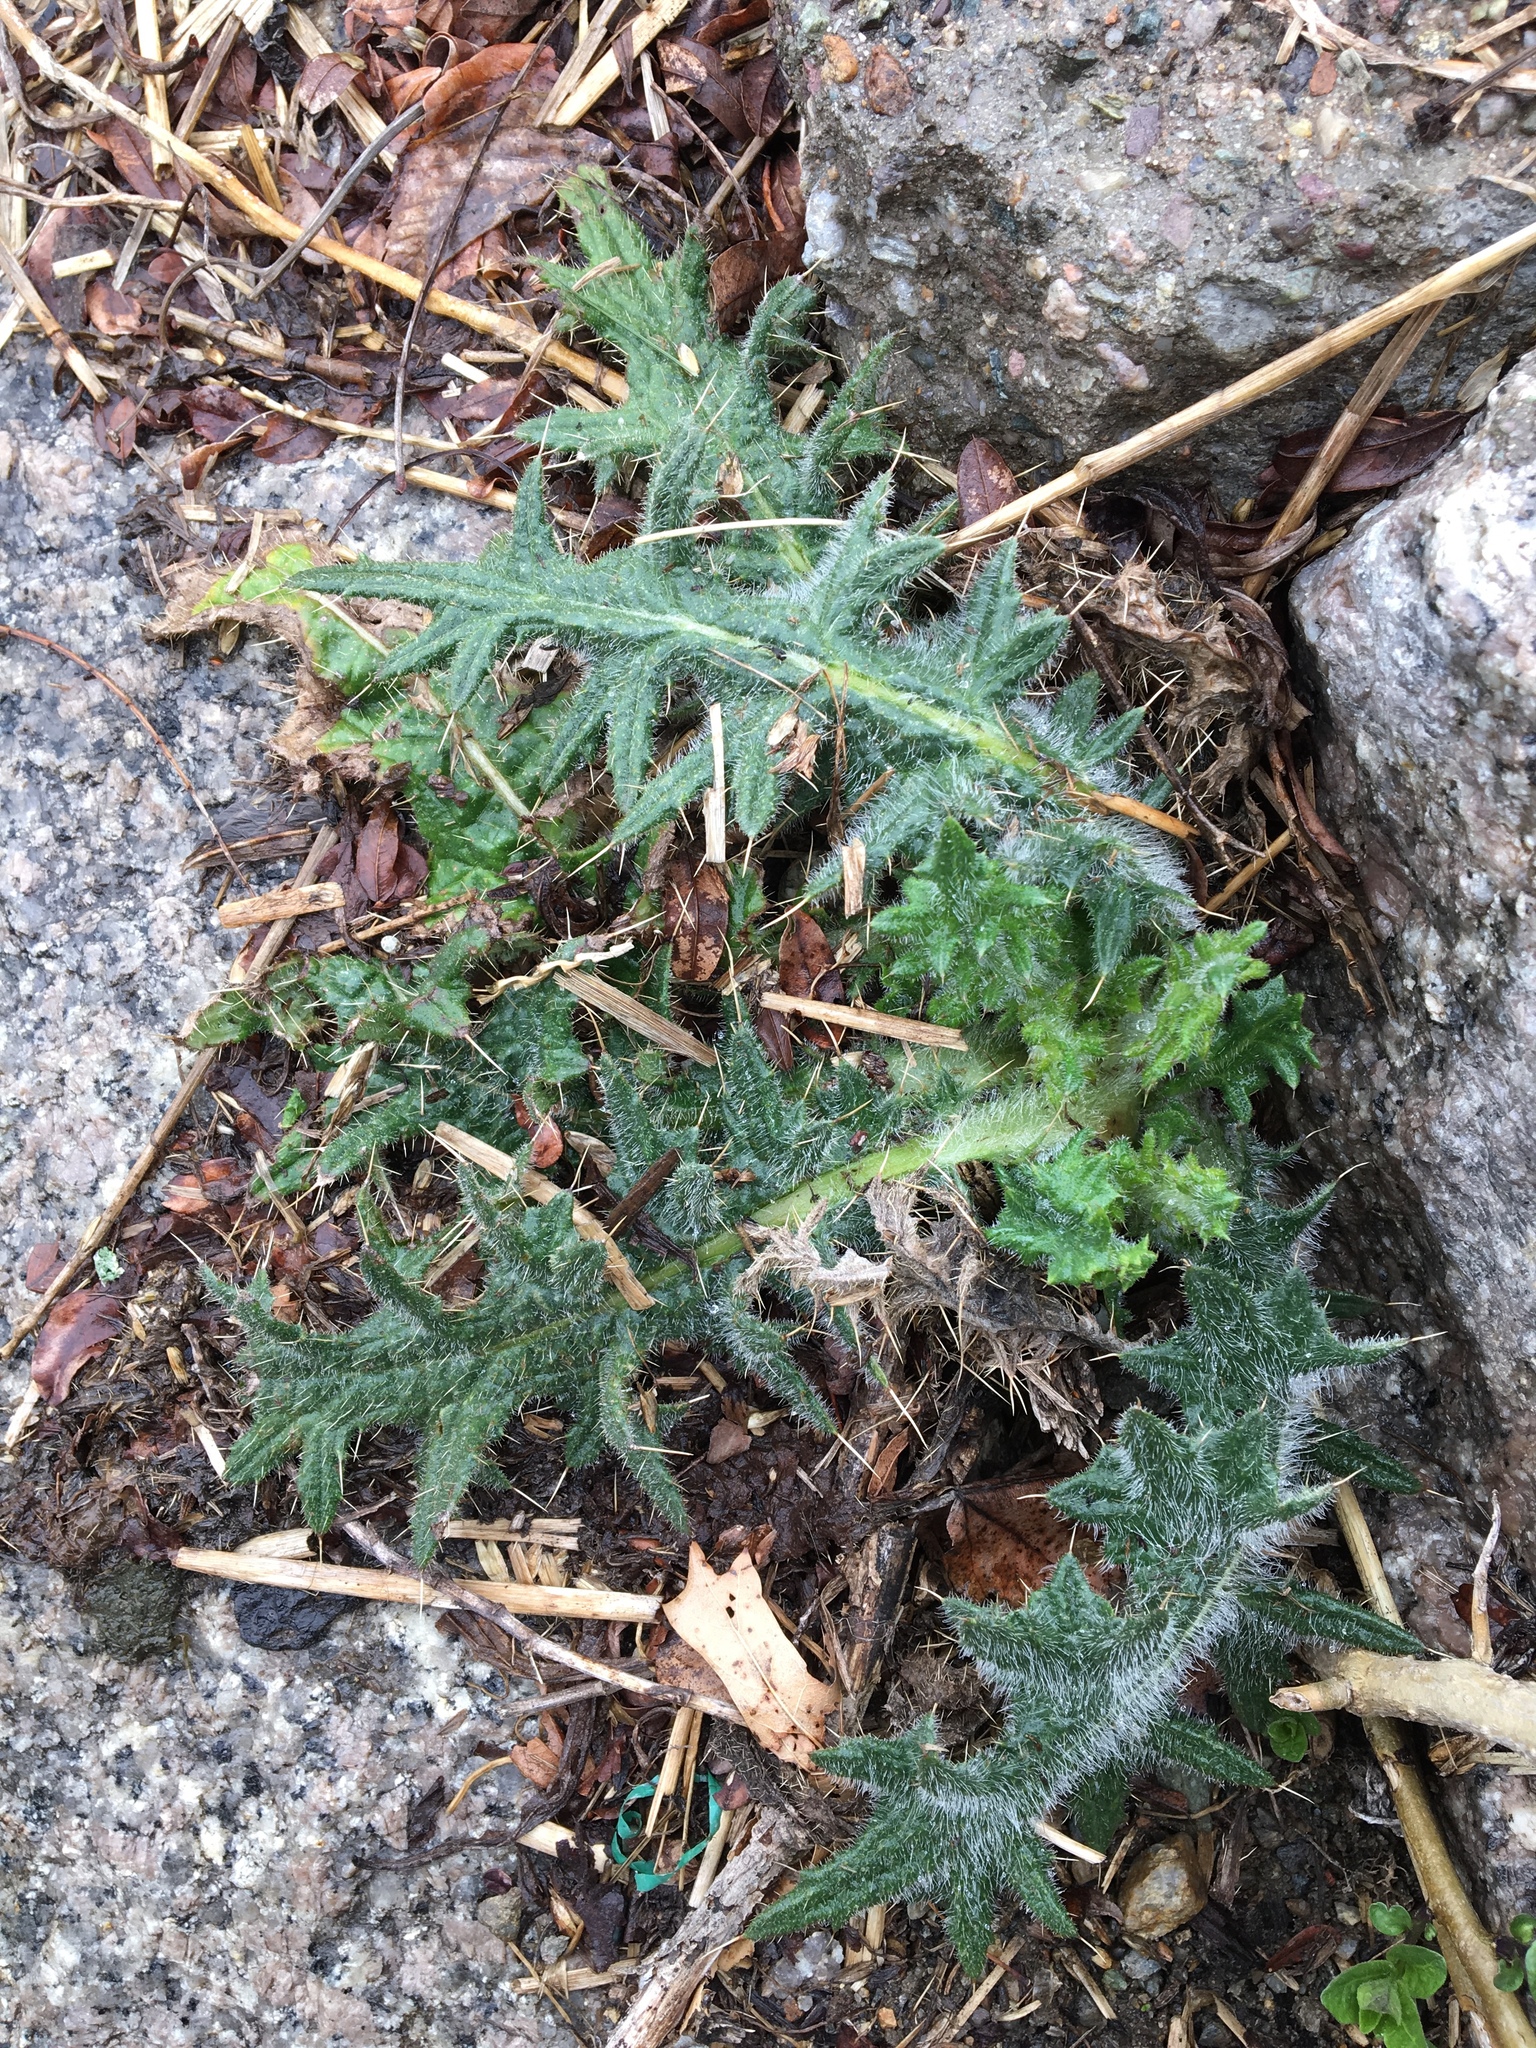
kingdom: Plantae
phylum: Tracheophyta
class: Magnoliopsida
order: Asterales
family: Asteraceae
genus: Cirsium
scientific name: Cirsium vulgare
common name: Bull thistle
